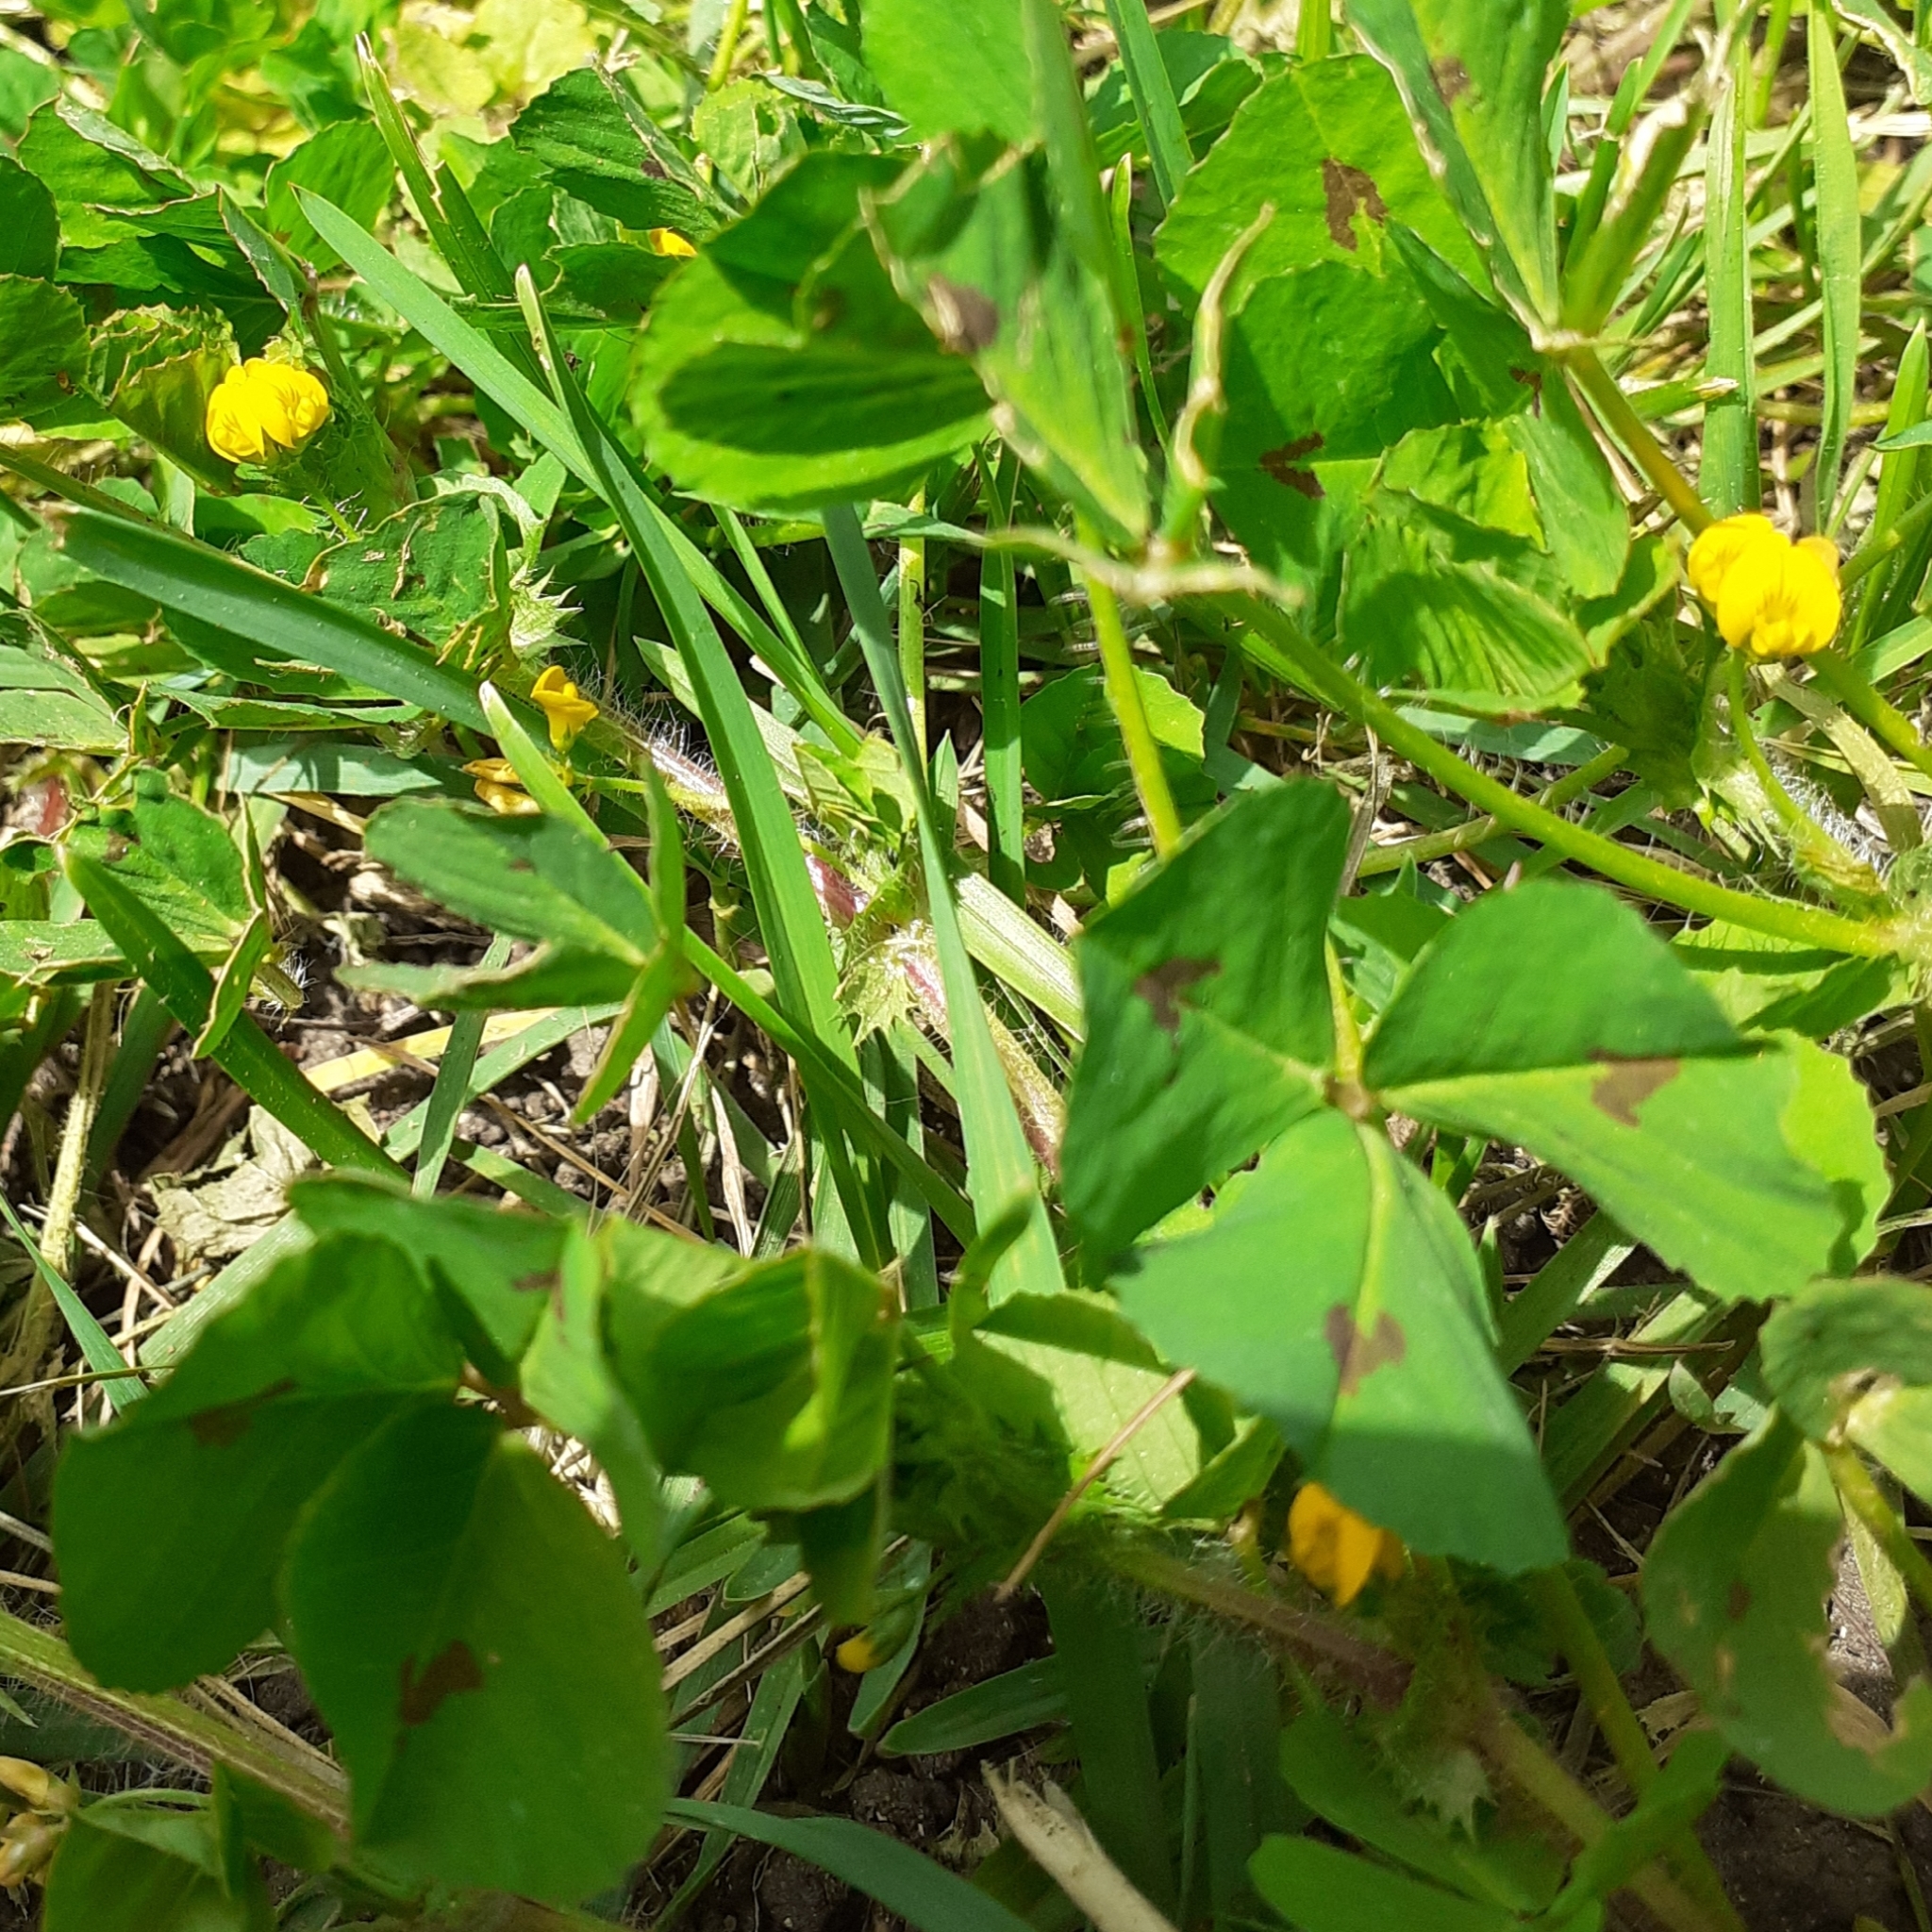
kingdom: Plantae
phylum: Tracheophyta
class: Magnoliopsida
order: Fabales
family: Fabaceae
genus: Medicago
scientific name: Medicago arabica
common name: Spotted medick
